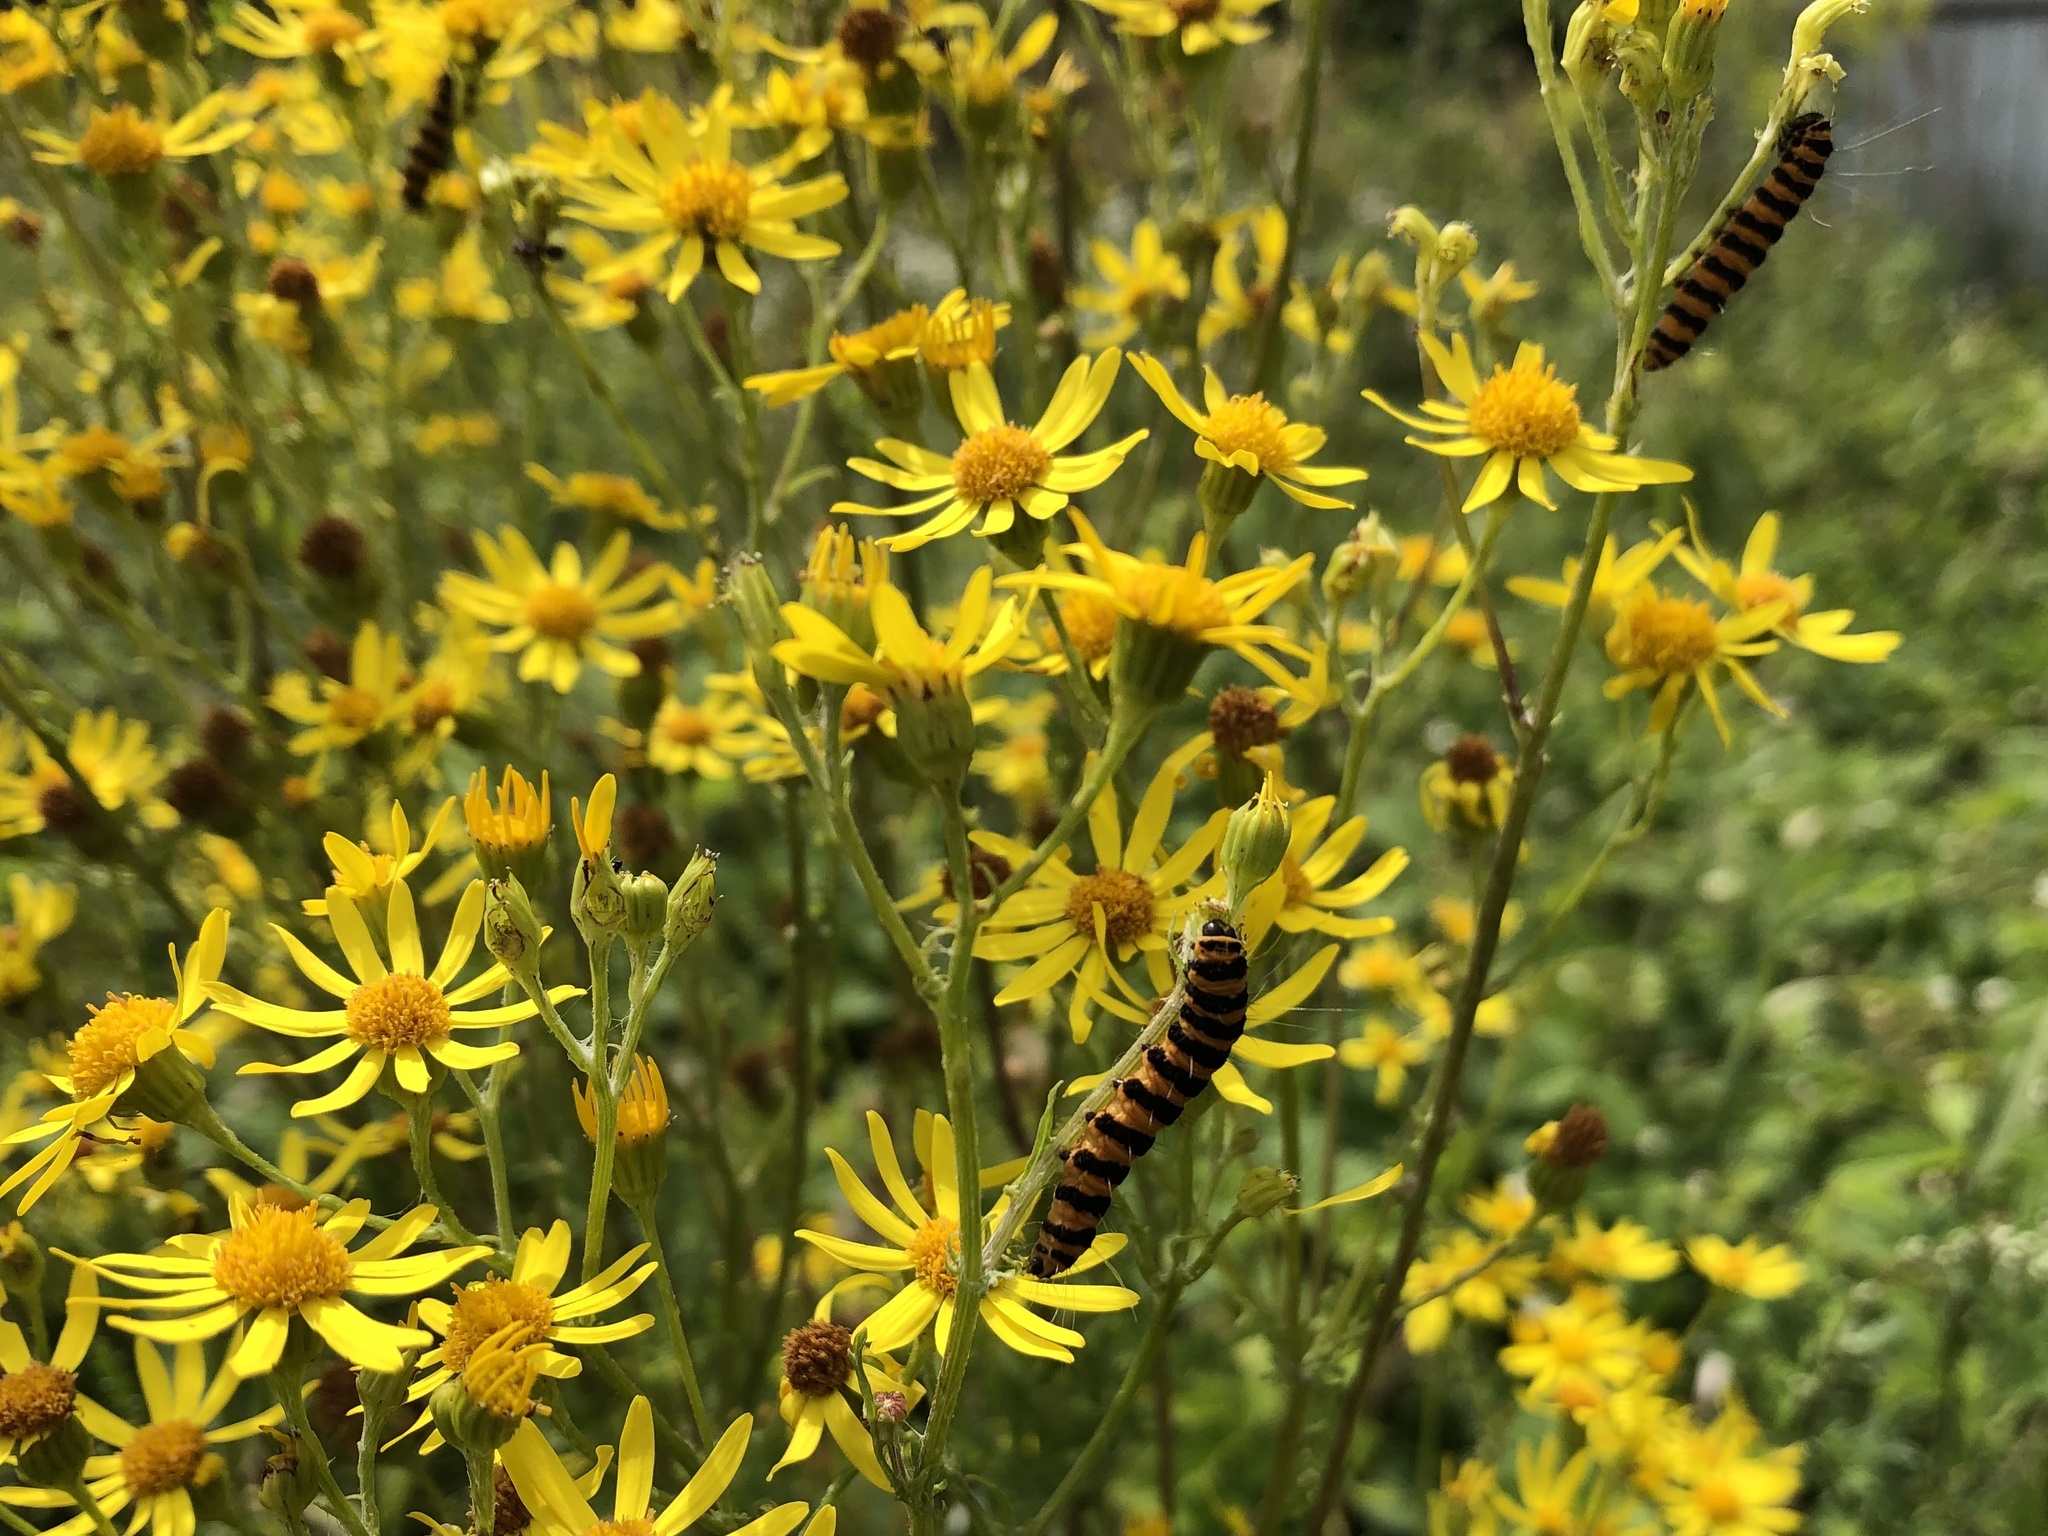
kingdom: Animalia
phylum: Arthropoda
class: Insecta
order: Lepidoptera
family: Erebidae
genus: Tyria
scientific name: Tyria jacobaeae
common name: Cinnabar
